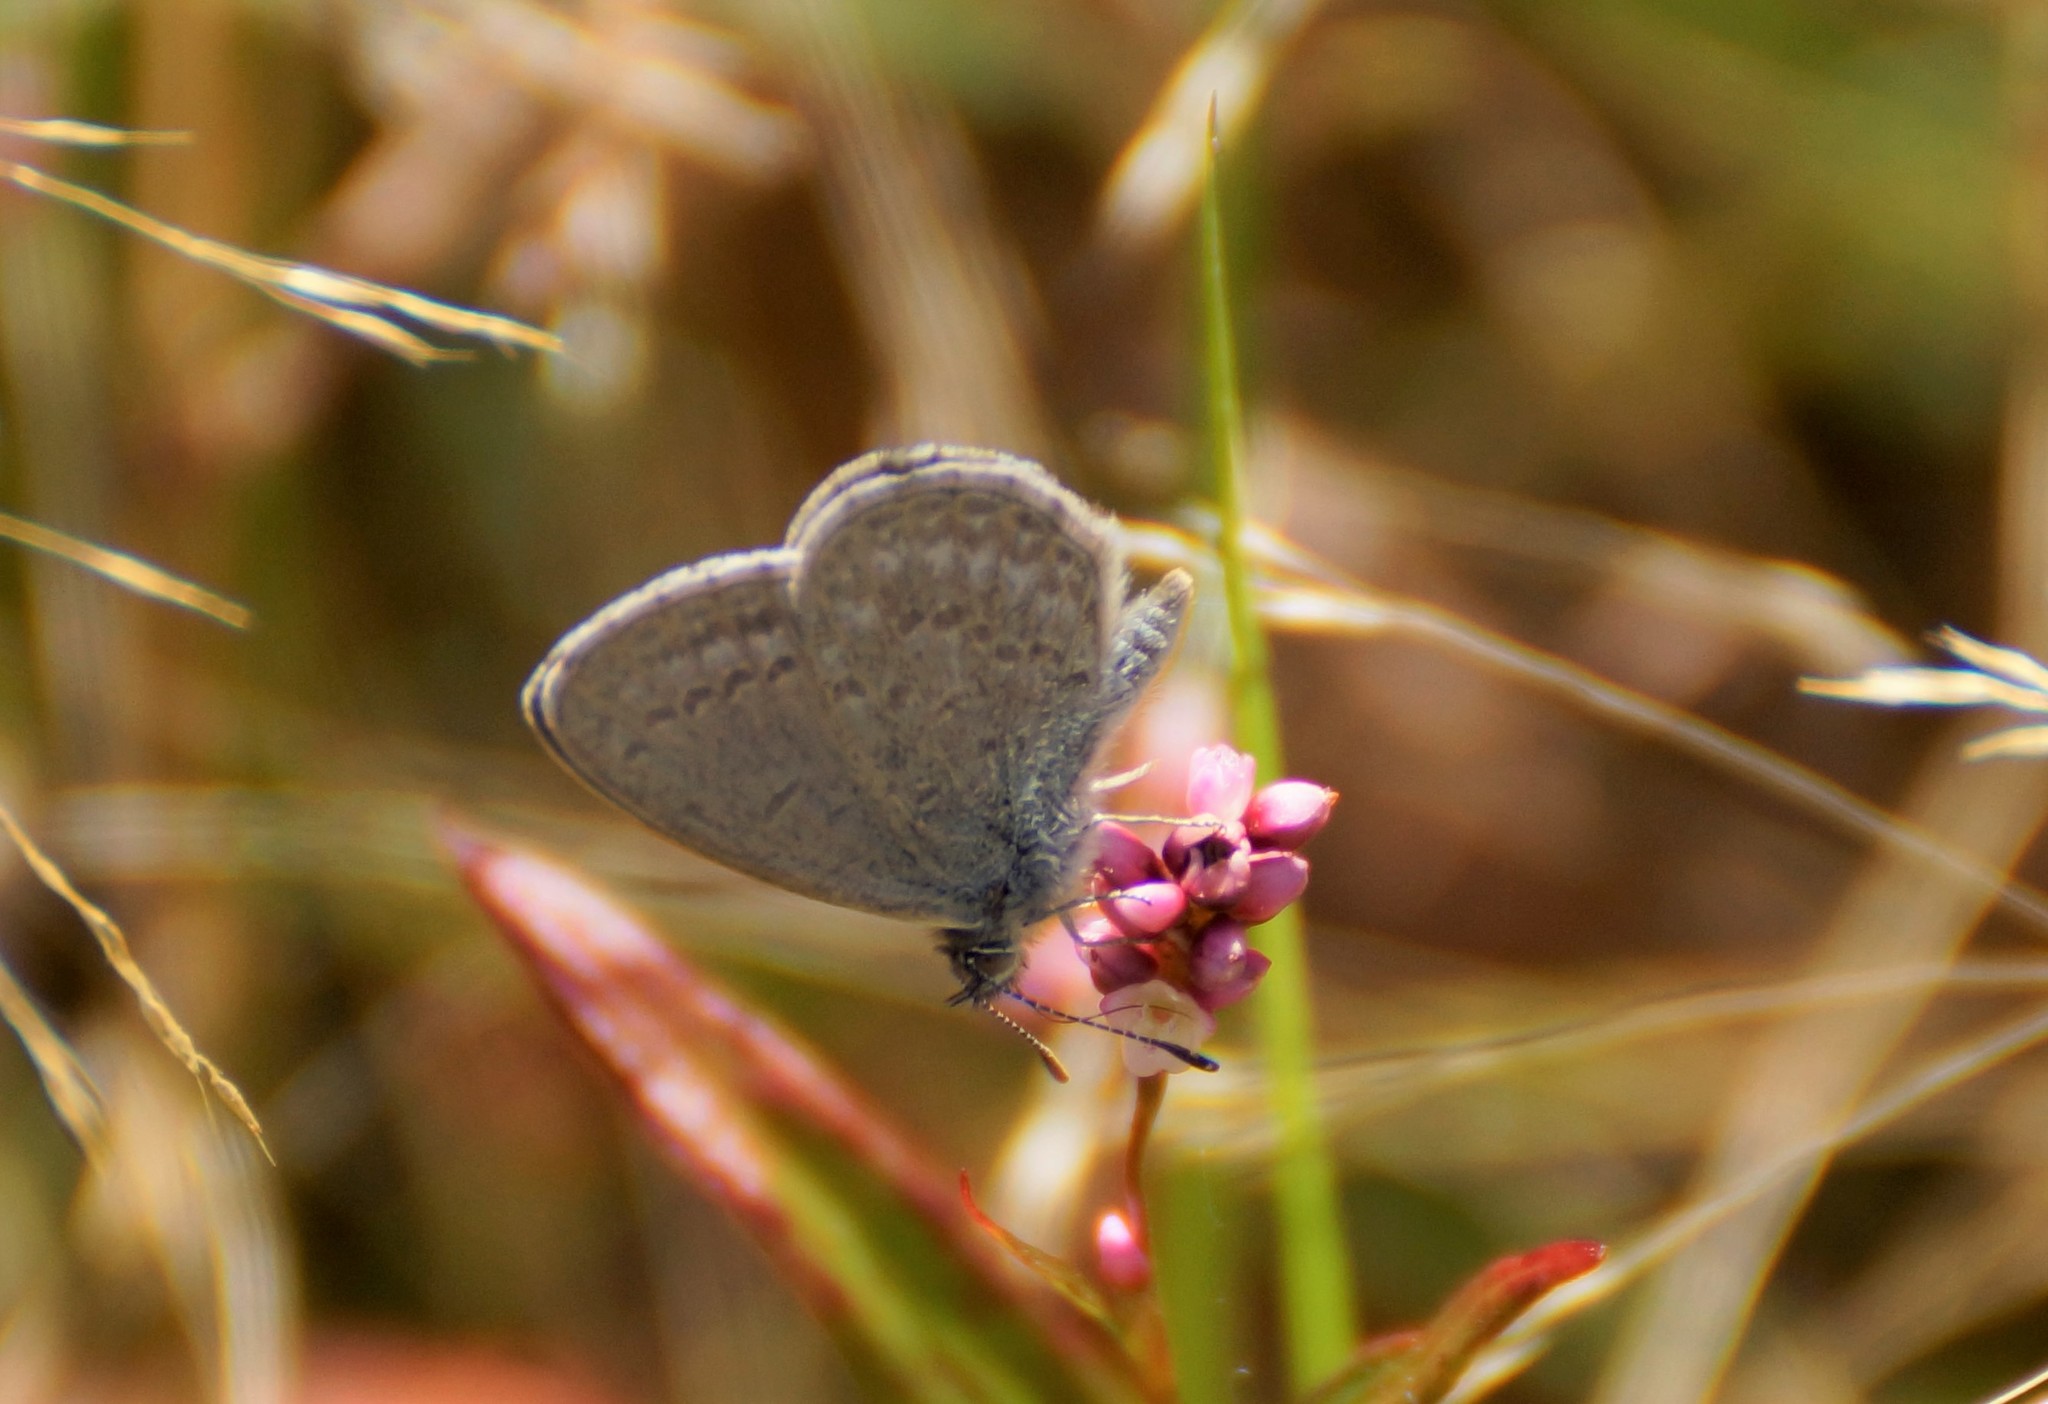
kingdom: Animalia
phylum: Arthropoda
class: Insecta
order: Lepidoptera
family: Lycaenidae
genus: Zizina
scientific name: Zizina labradus
